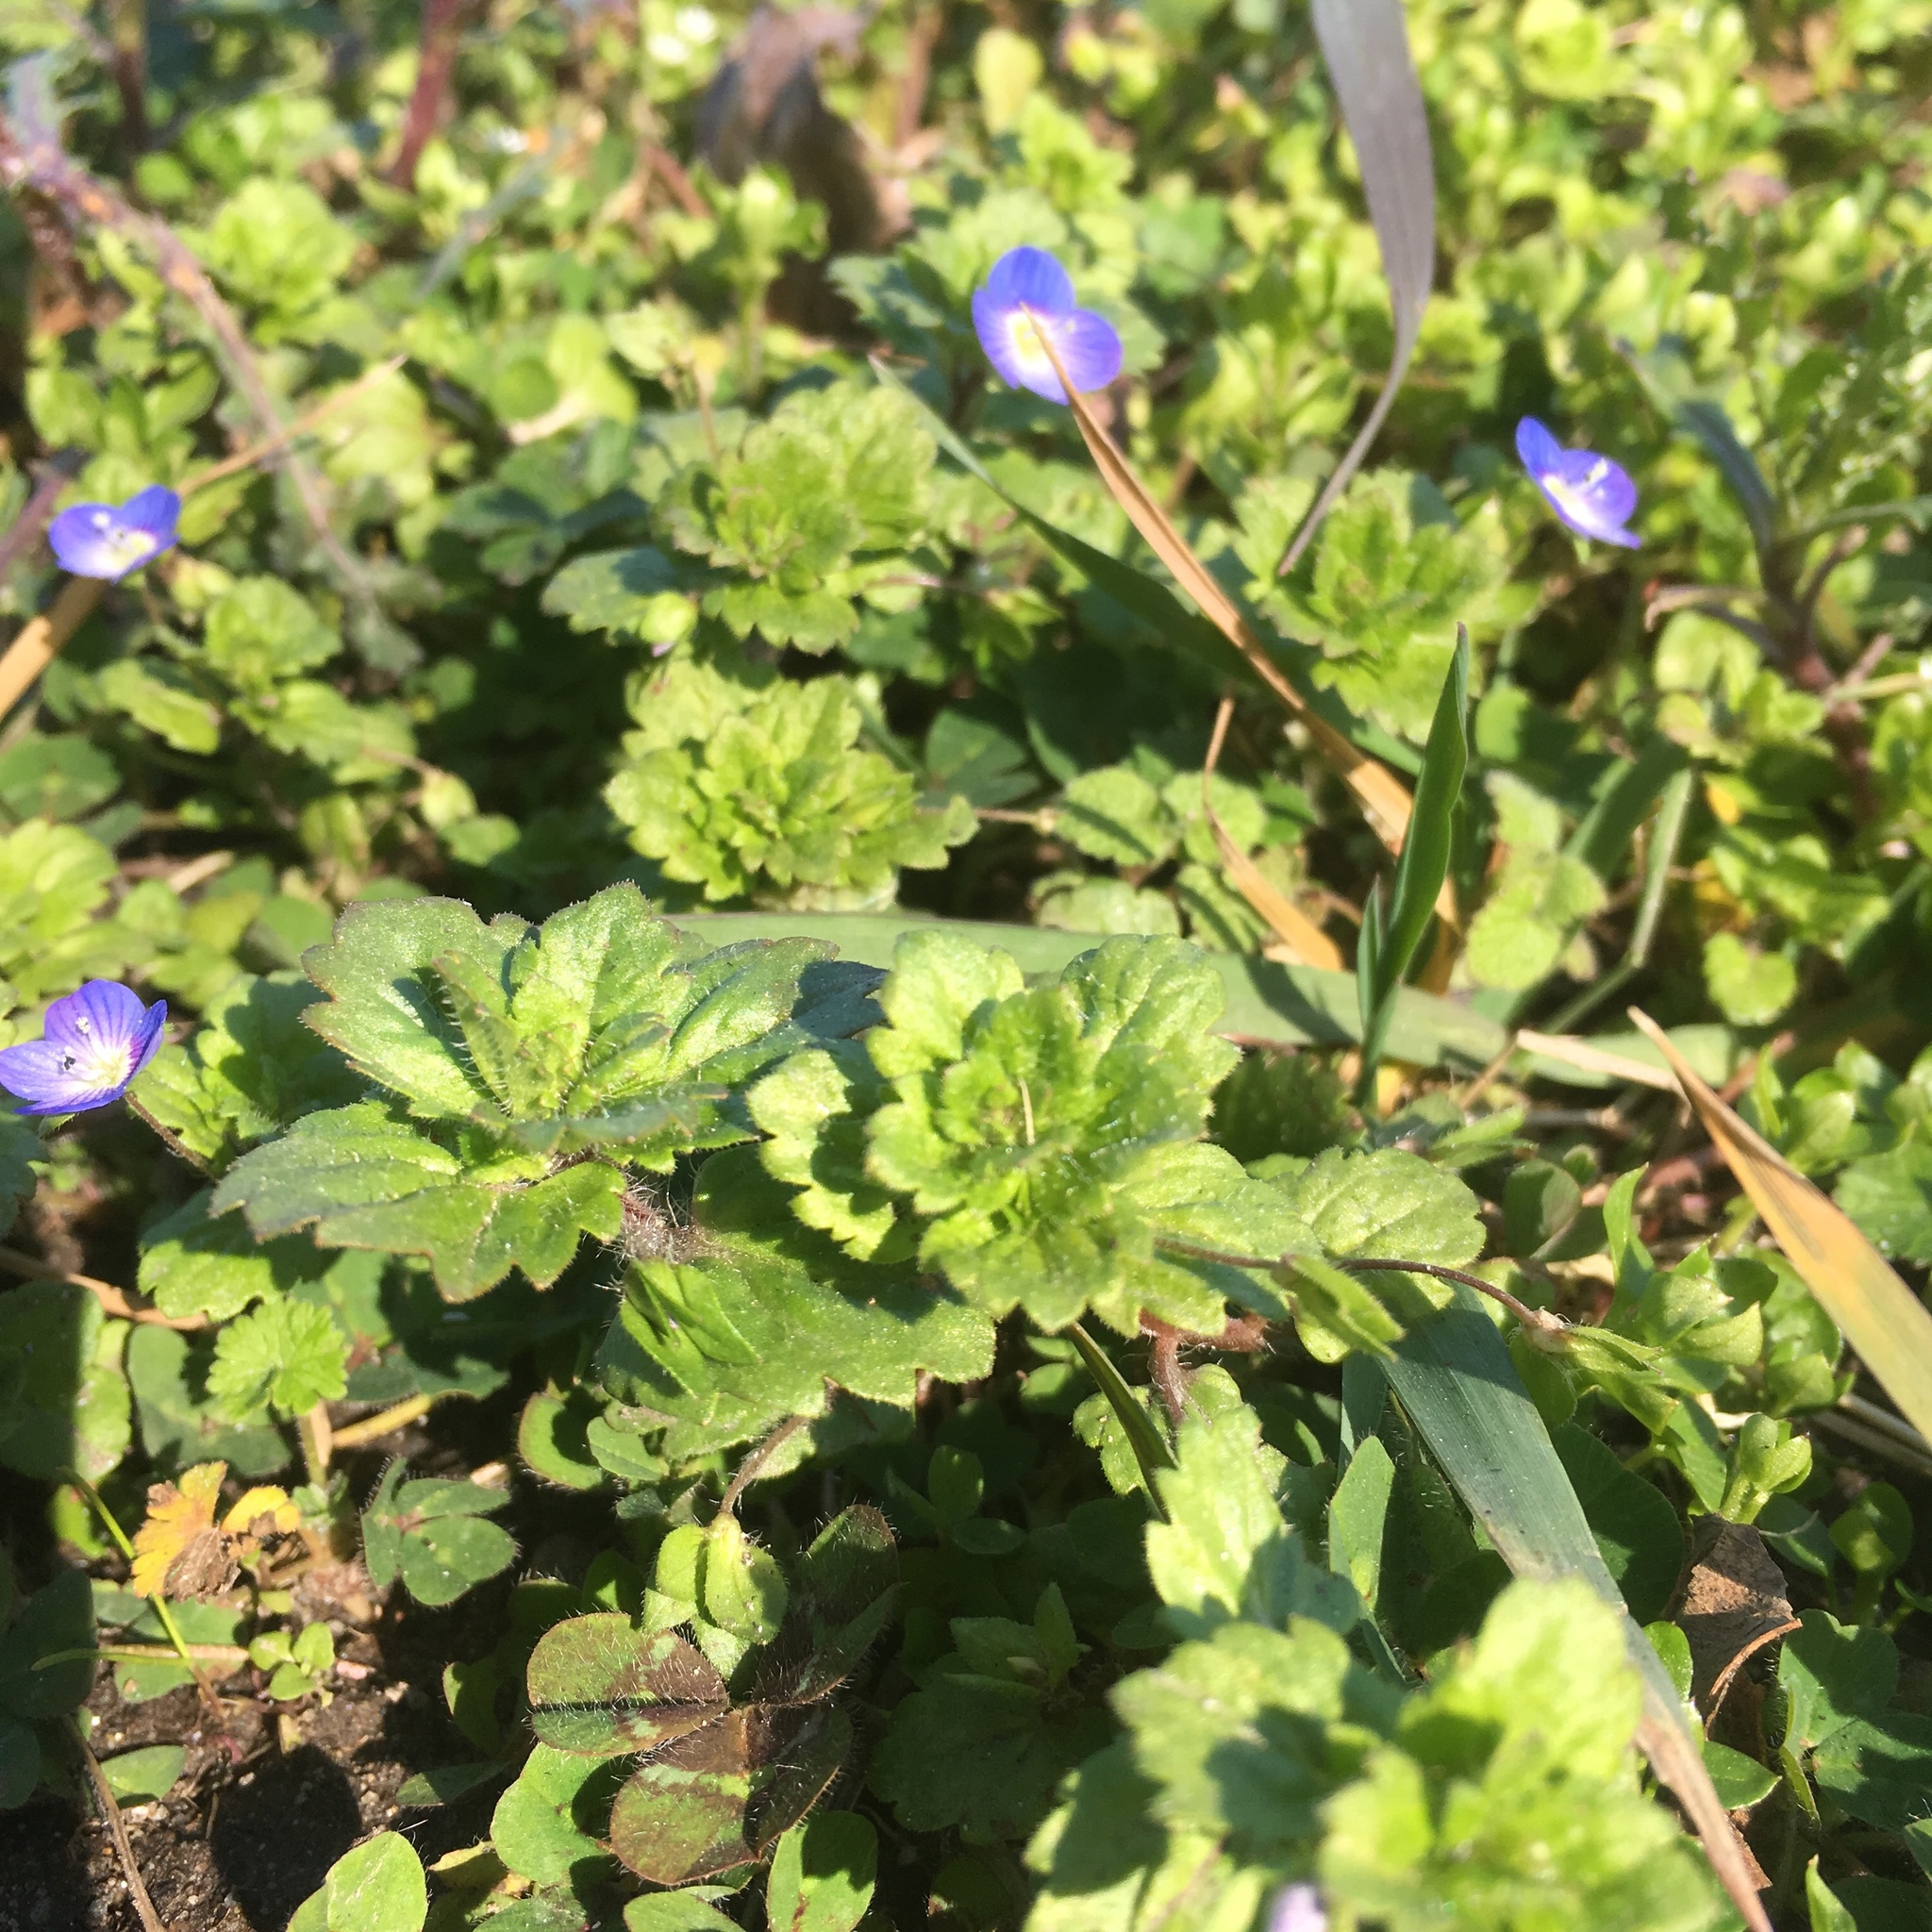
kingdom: Plantae
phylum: Tracheophyta
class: Magnoliopsida
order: Lamiales
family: Plantaginaceae
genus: Veronica
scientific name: Veronica persica
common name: Common field-speedwell
